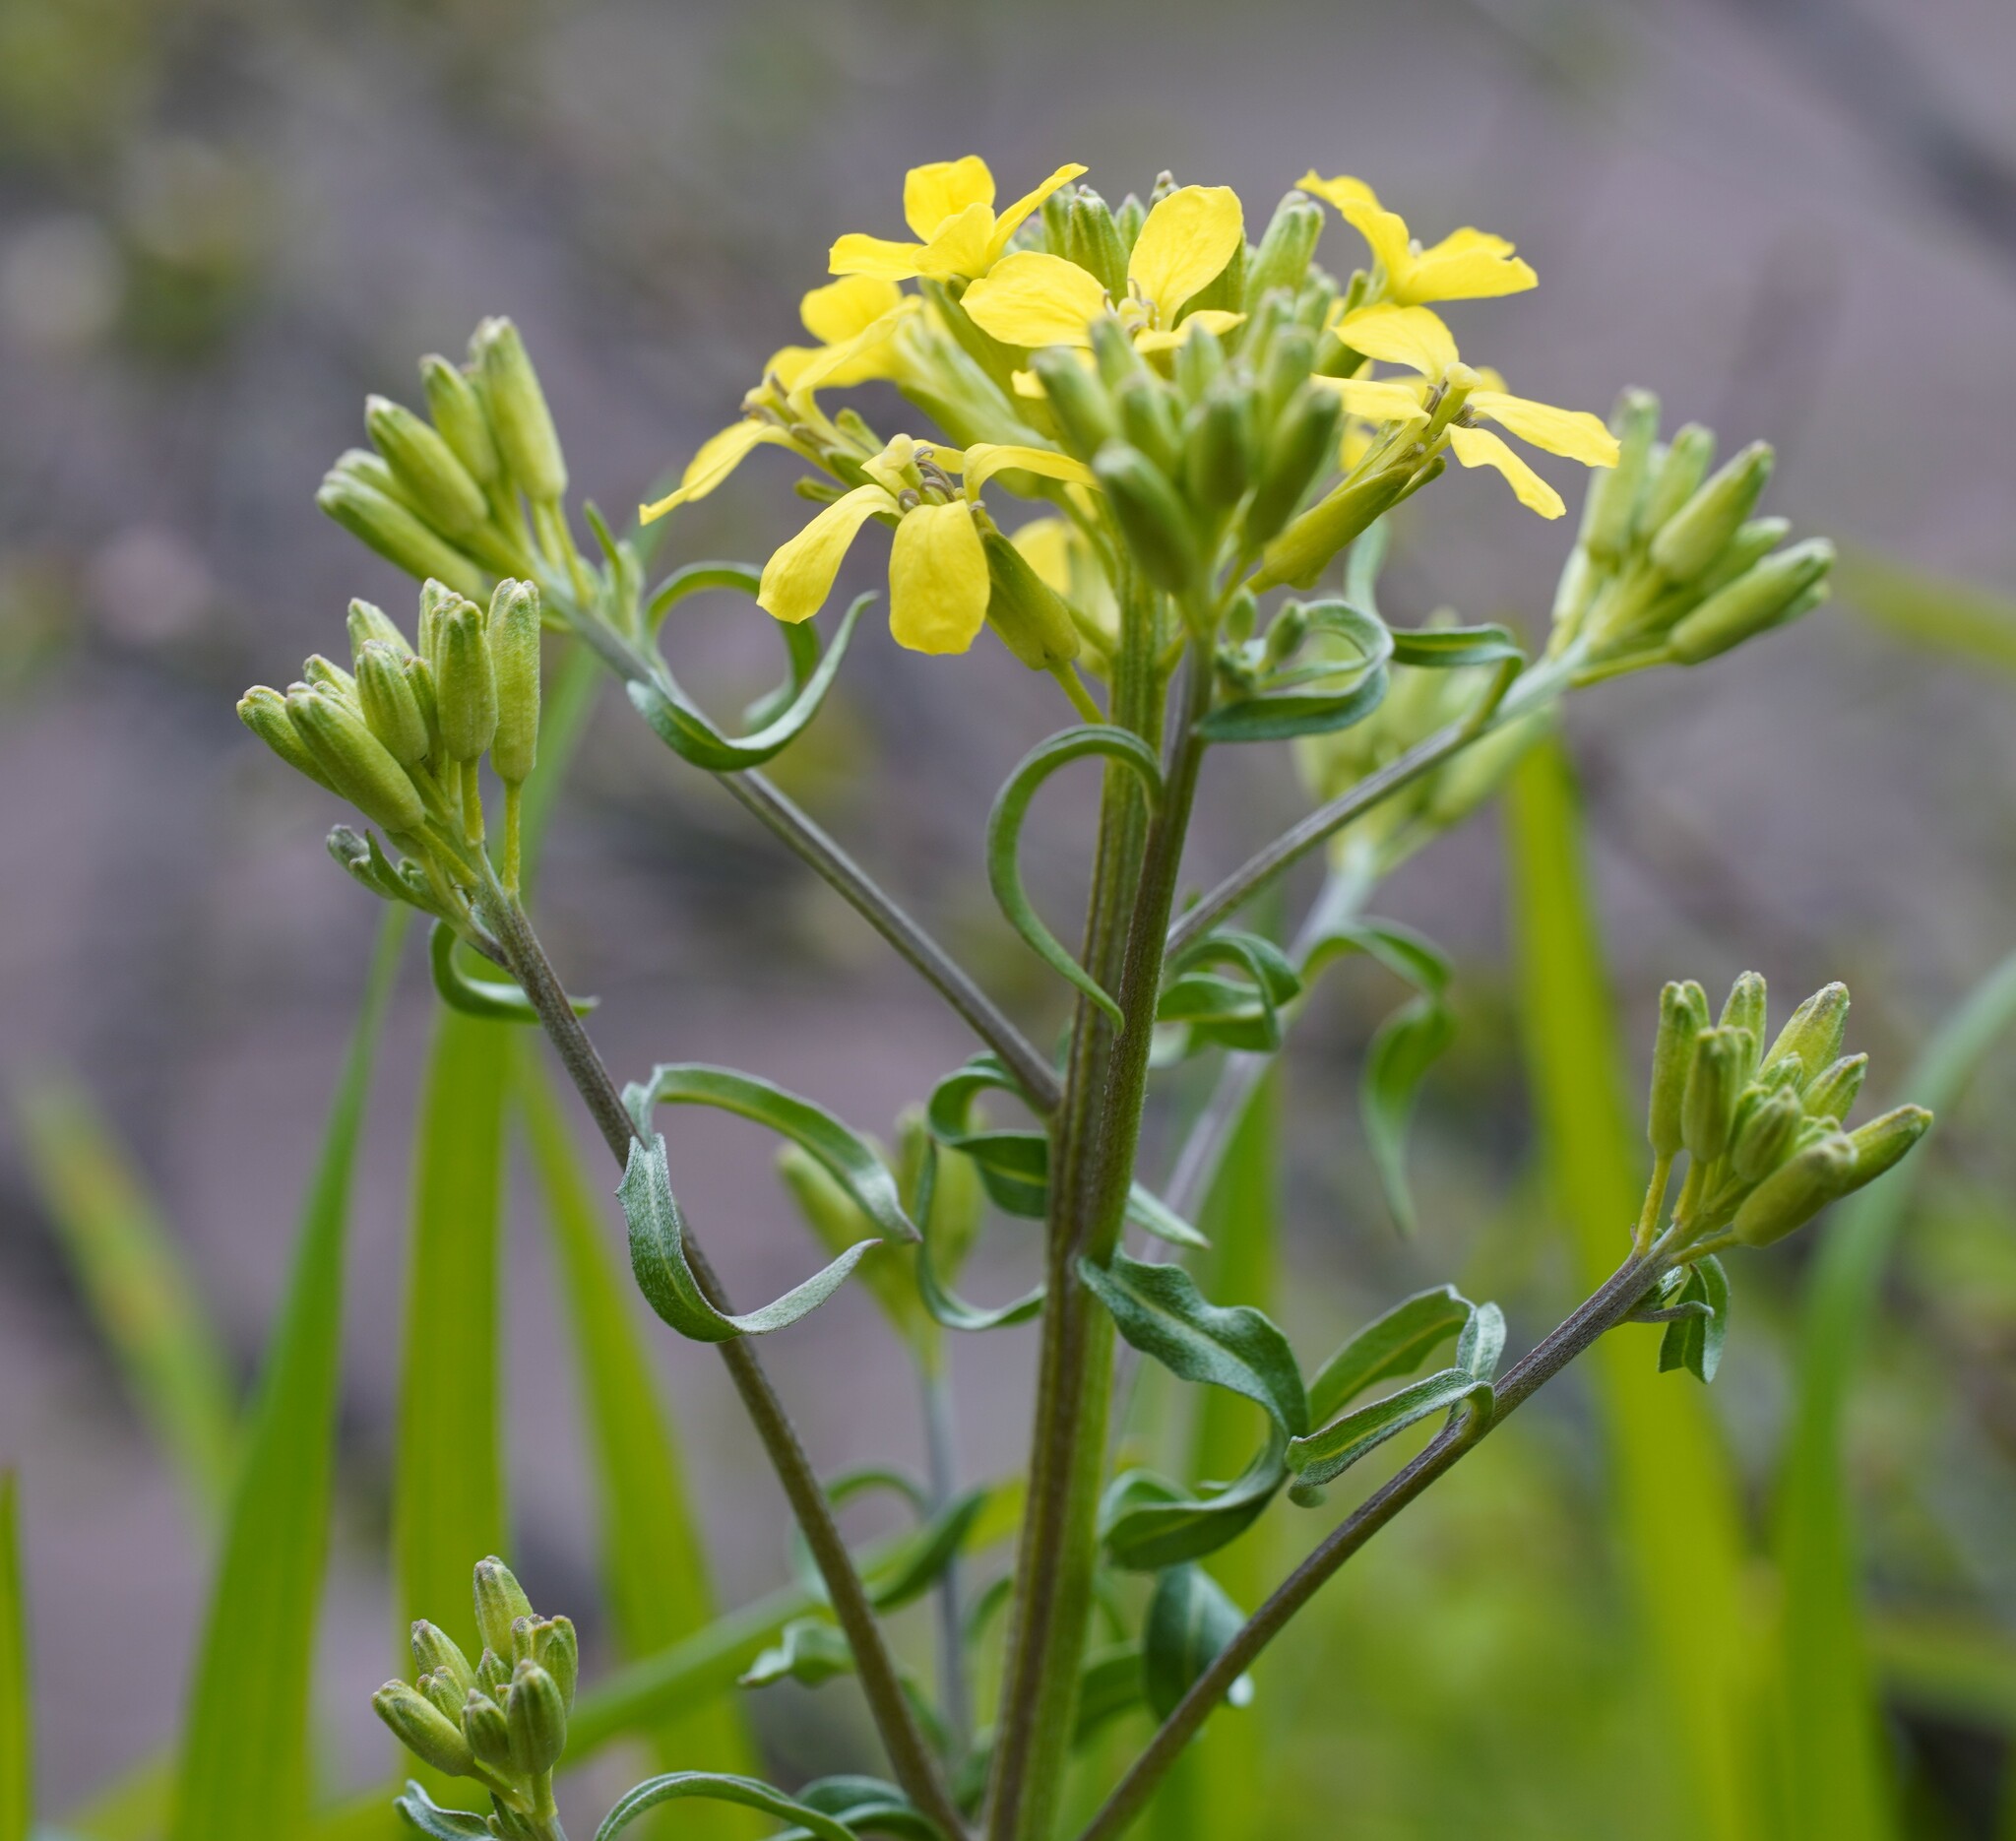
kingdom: Plantae
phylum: Tracheophyta
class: Magnoliopsida
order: Brassicales
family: Brassicaceae
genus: Erysimum
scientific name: Erysimum crepidifolium
